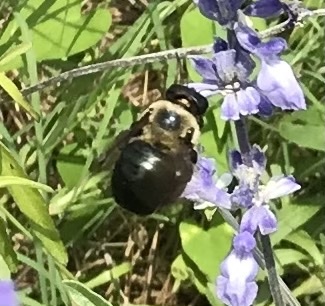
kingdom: Animalia
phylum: Arthropoda
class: Insecta
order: Hymenoptera
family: Apidae
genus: Xylocopa
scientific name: Xylocopa virginica
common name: Carpenter bee
